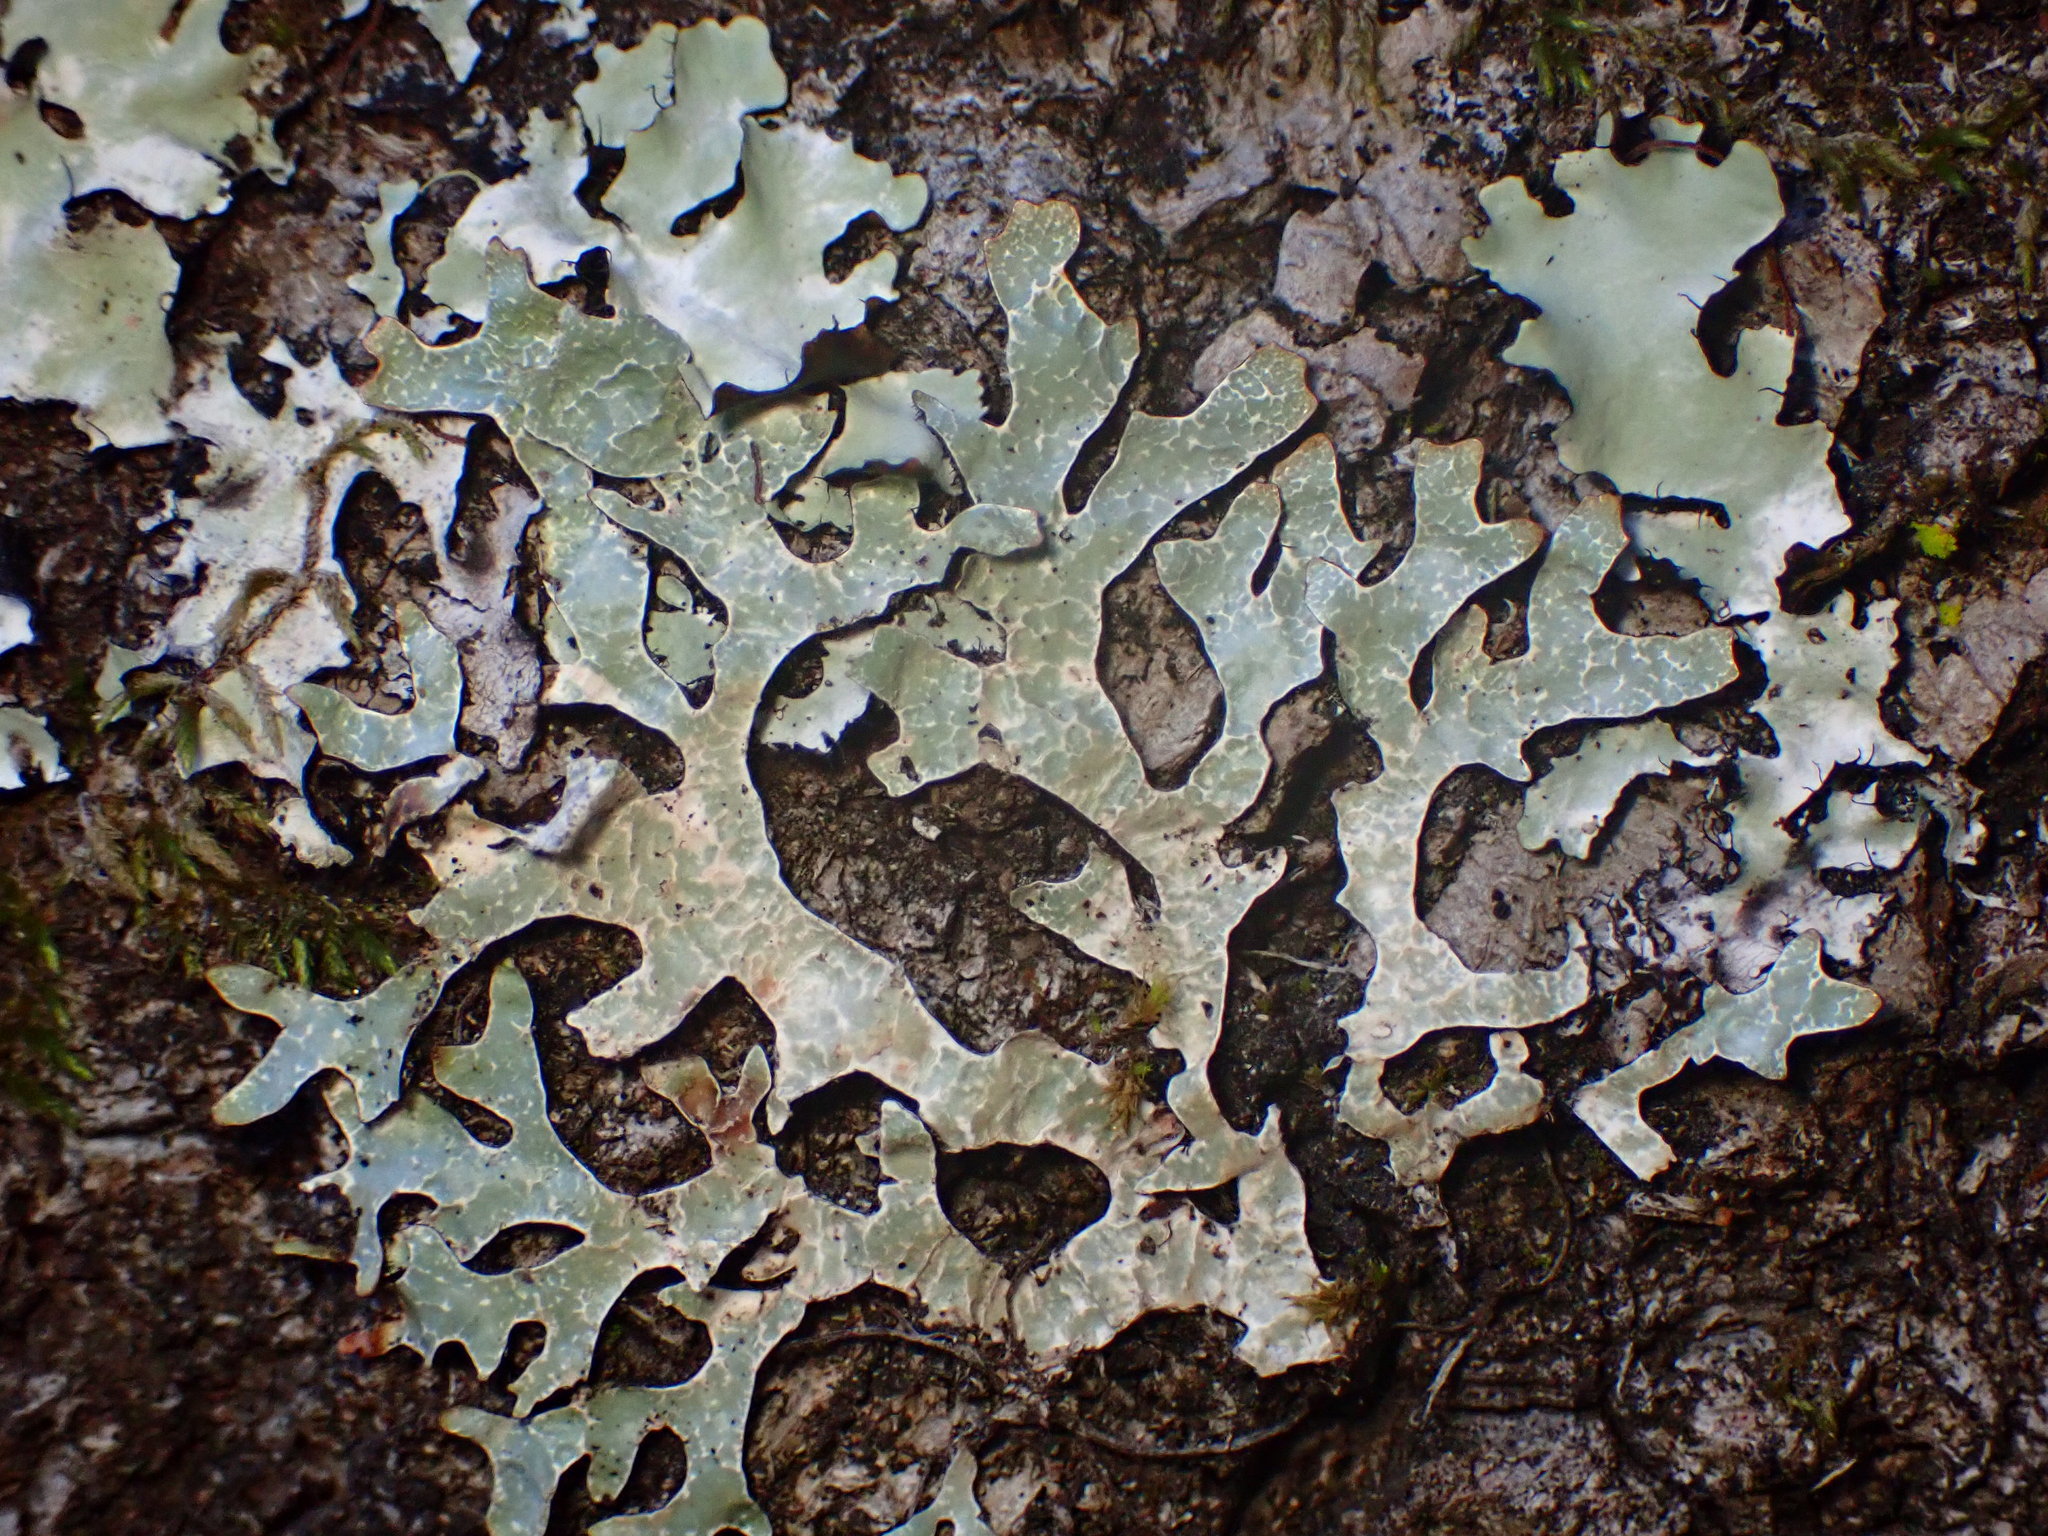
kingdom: Fungi
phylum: Ascomycota
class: Lecanoromycetes
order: Lecanorales
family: Parmeliaceae
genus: Parmelia
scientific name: Parmelia sulcata
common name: Netted shield lichen
